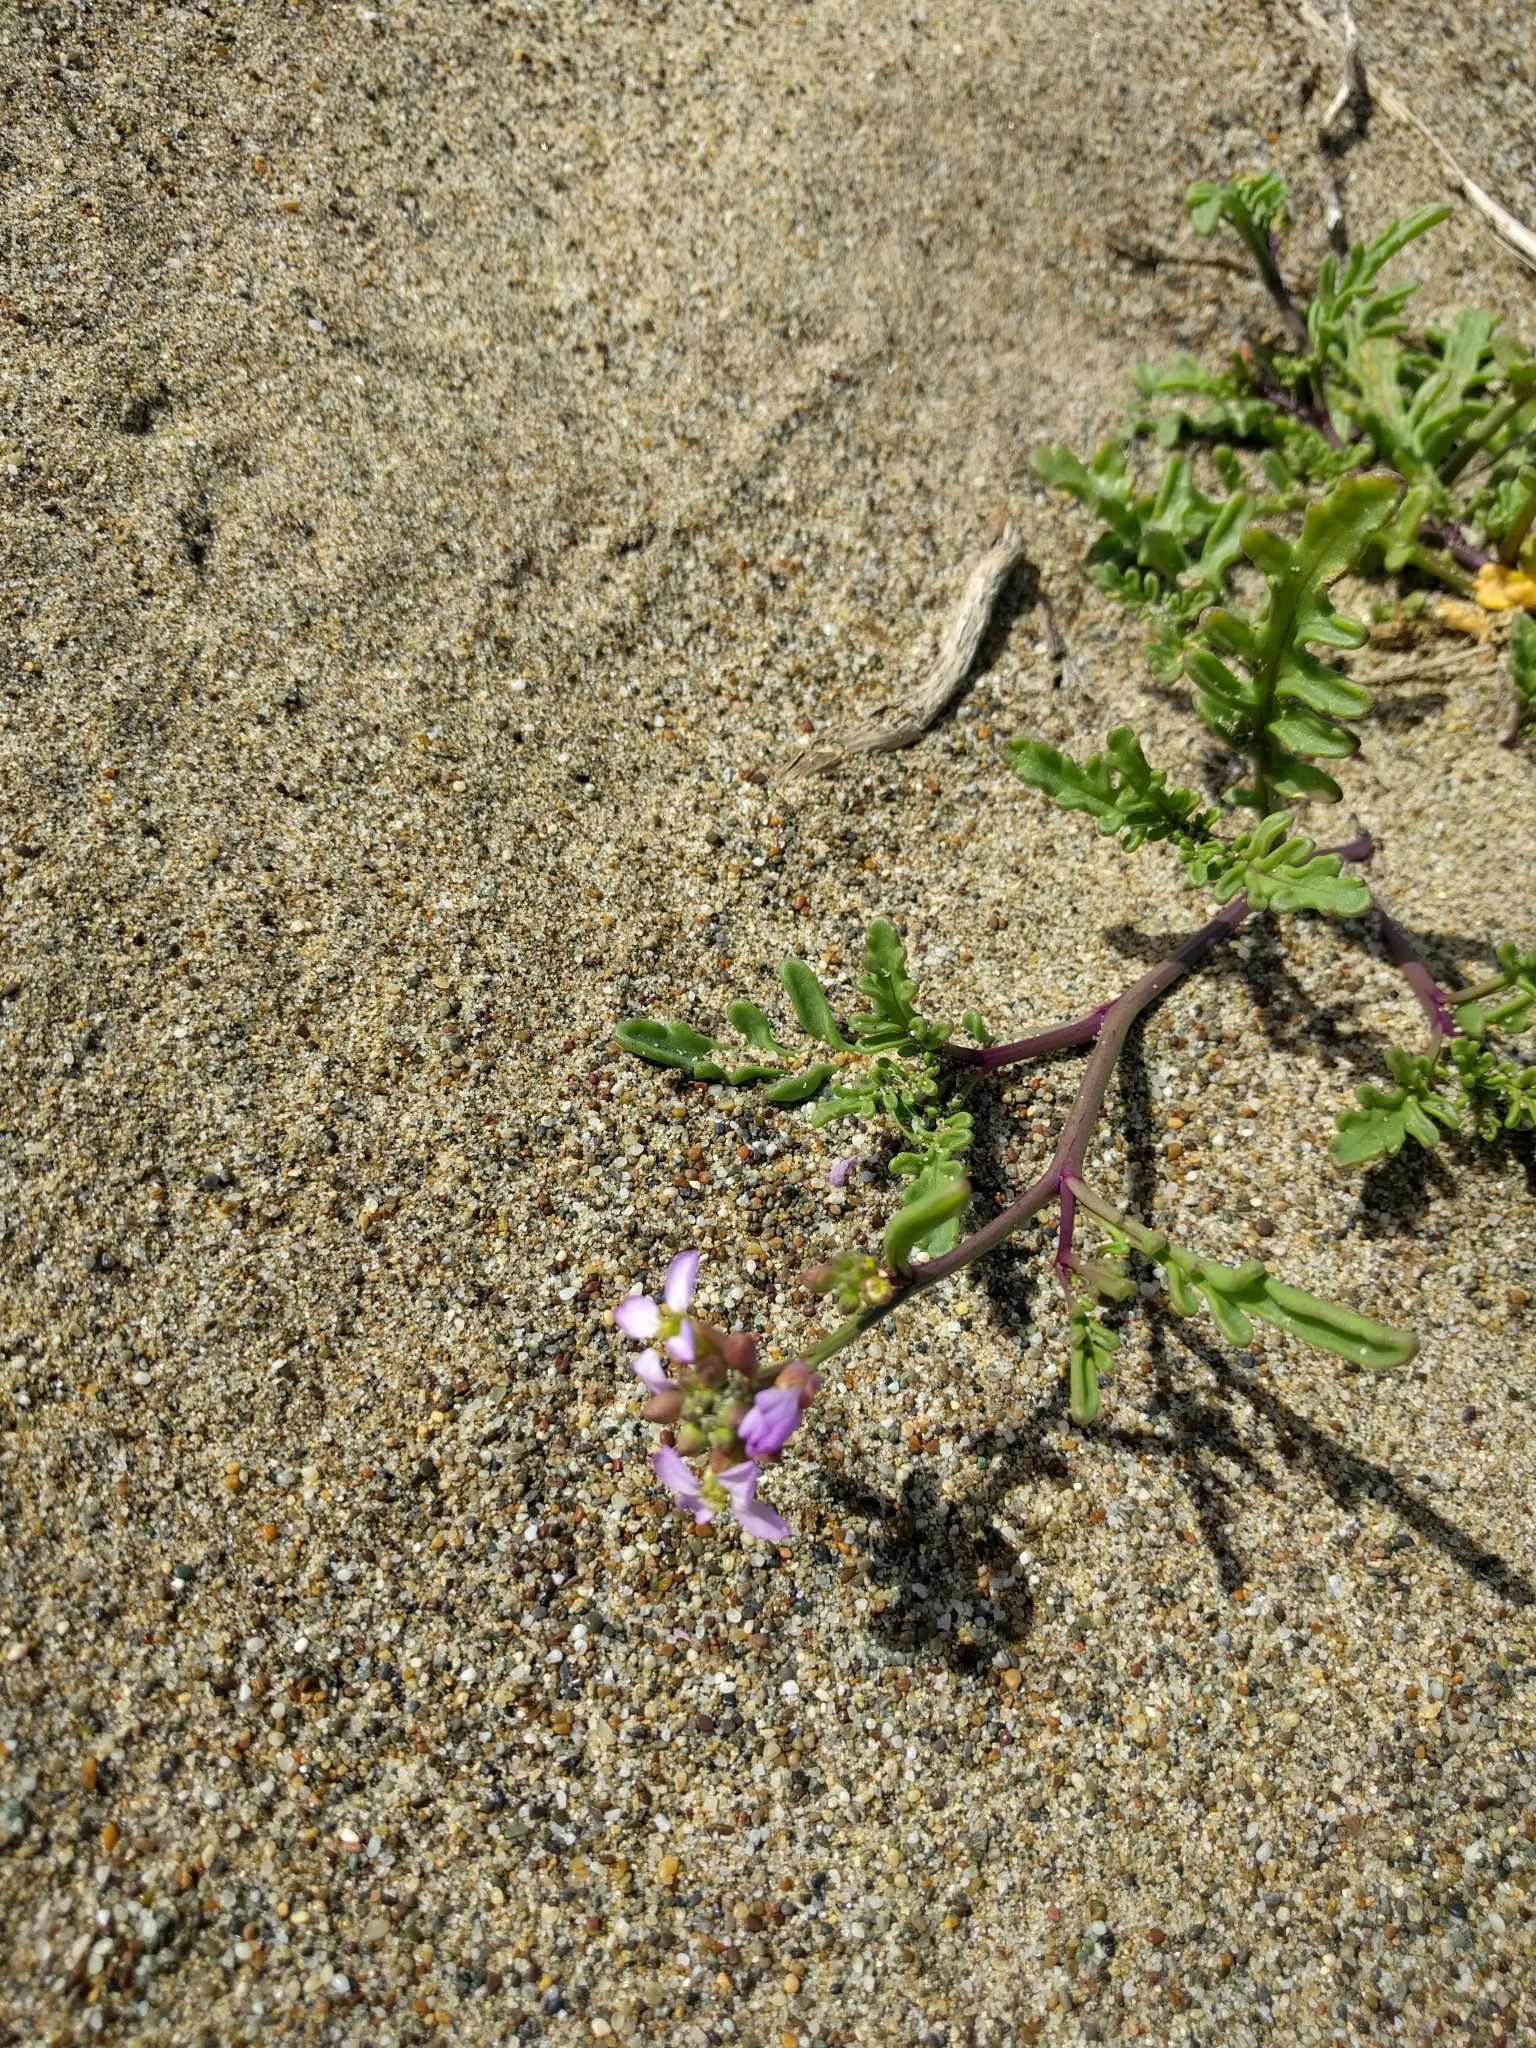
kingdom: Plantae
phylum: Tracheophyta
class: Magnoliopsida
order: Brassicales
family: Brassicaceae
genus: Cakile
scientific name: Cakile maritima
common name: Sea rocket
